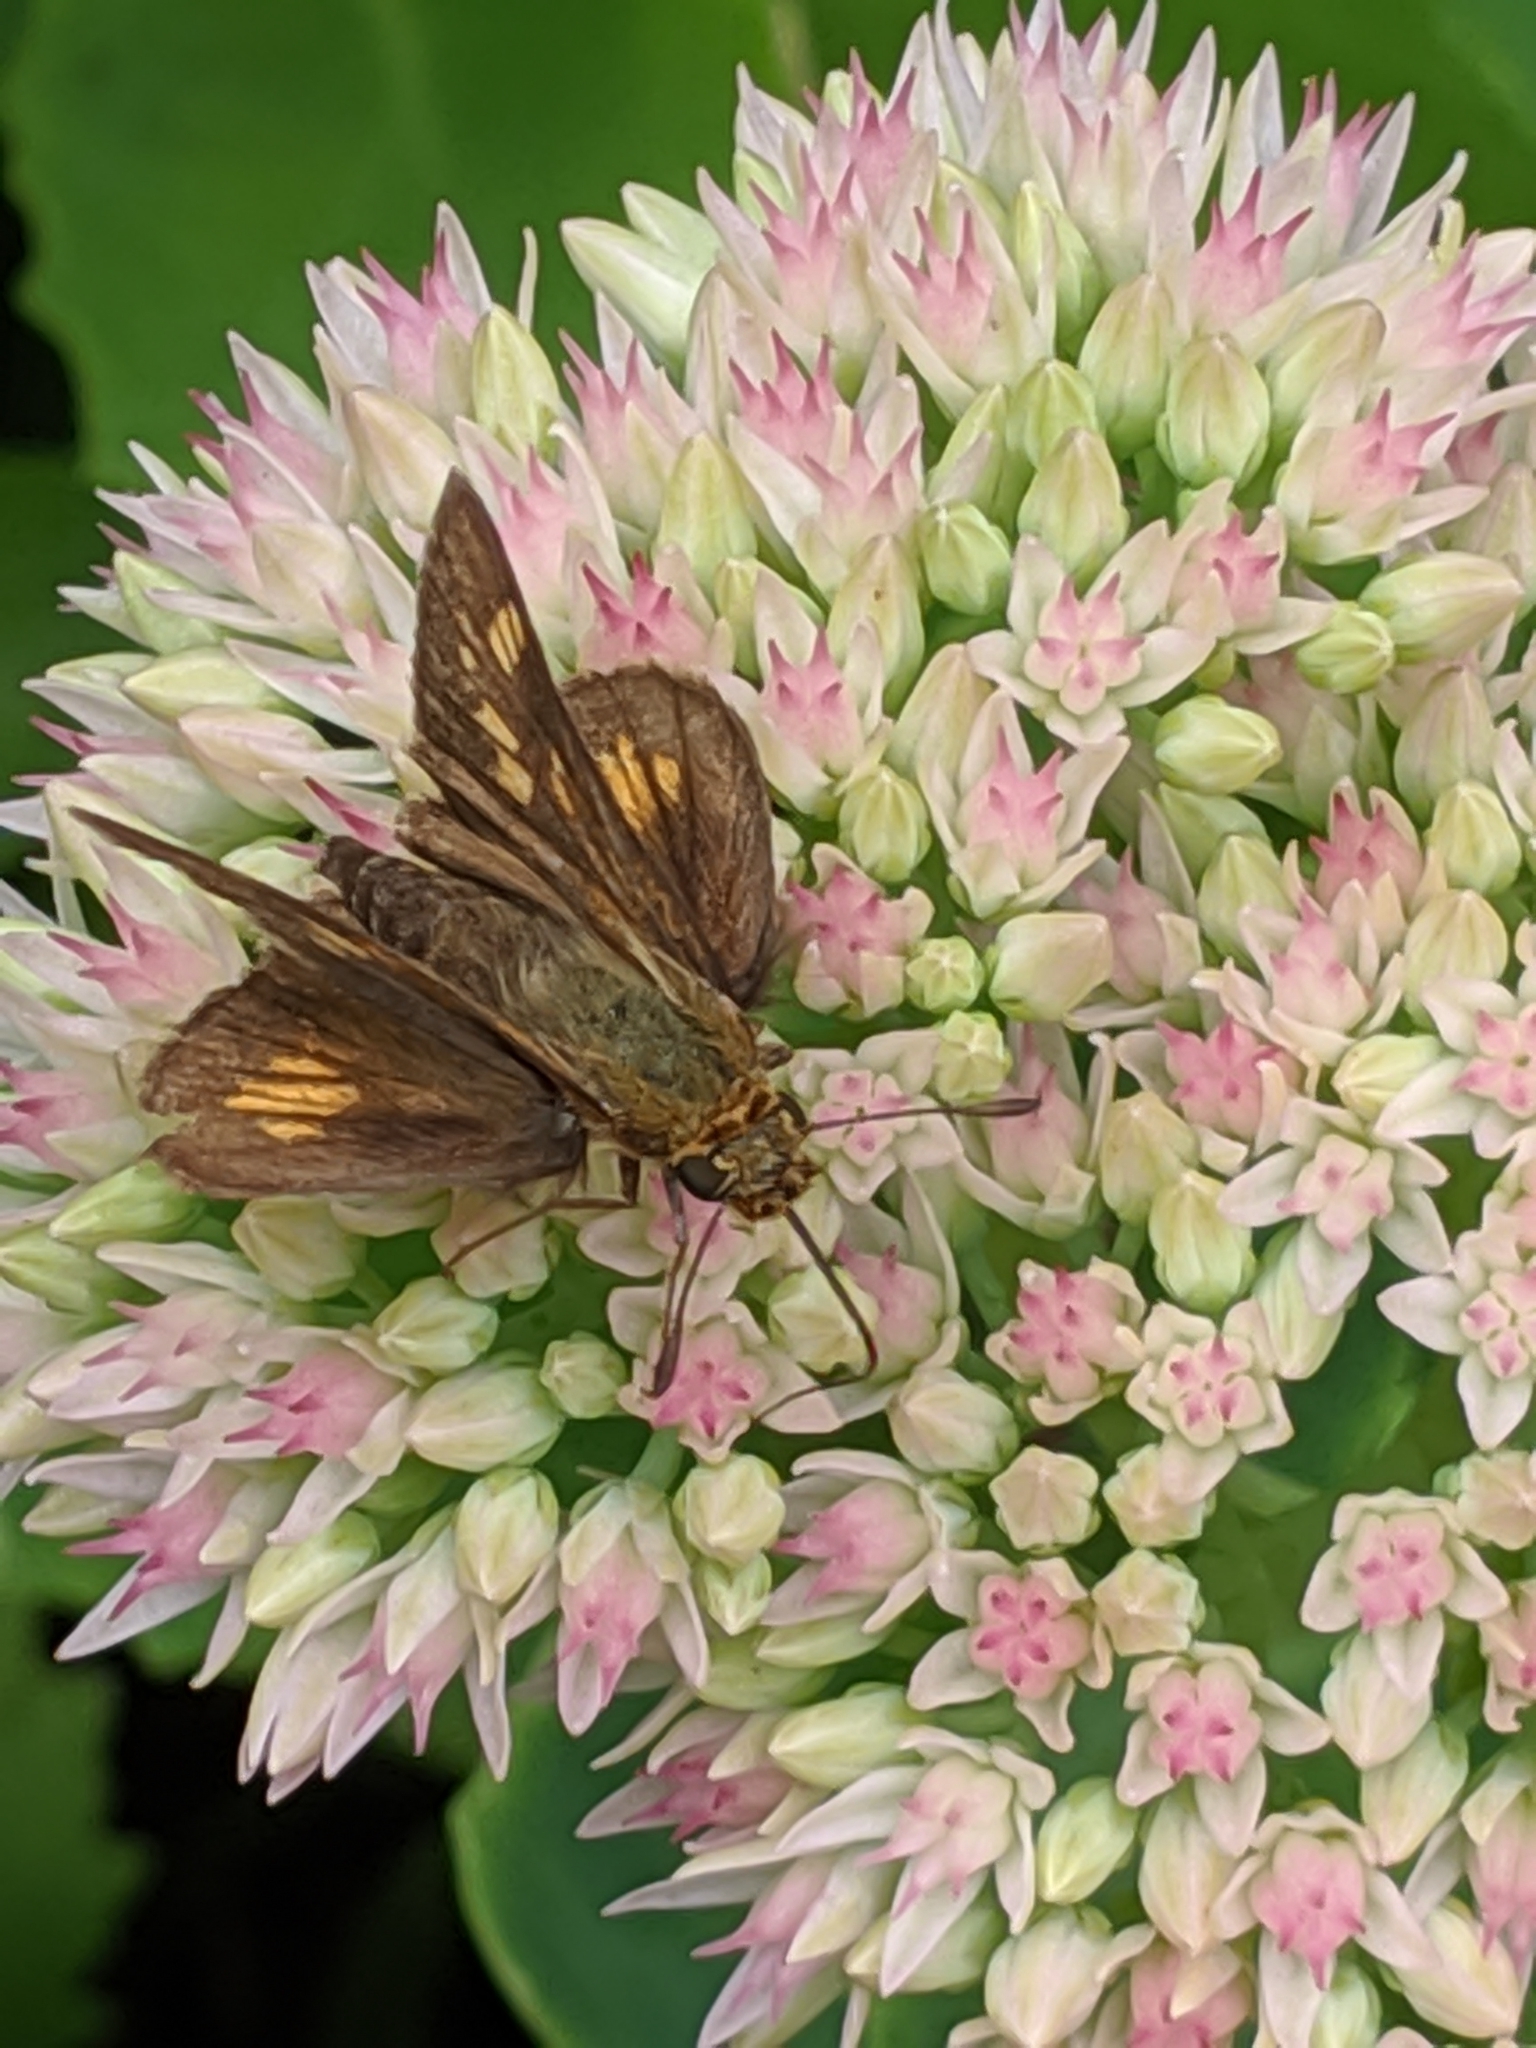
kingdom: Animalia
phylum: Arthropoda
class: Insecta
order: Lepidoptera
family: Hesperiidae
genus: Polites
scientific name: Polites coras
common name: Peck's skipper
